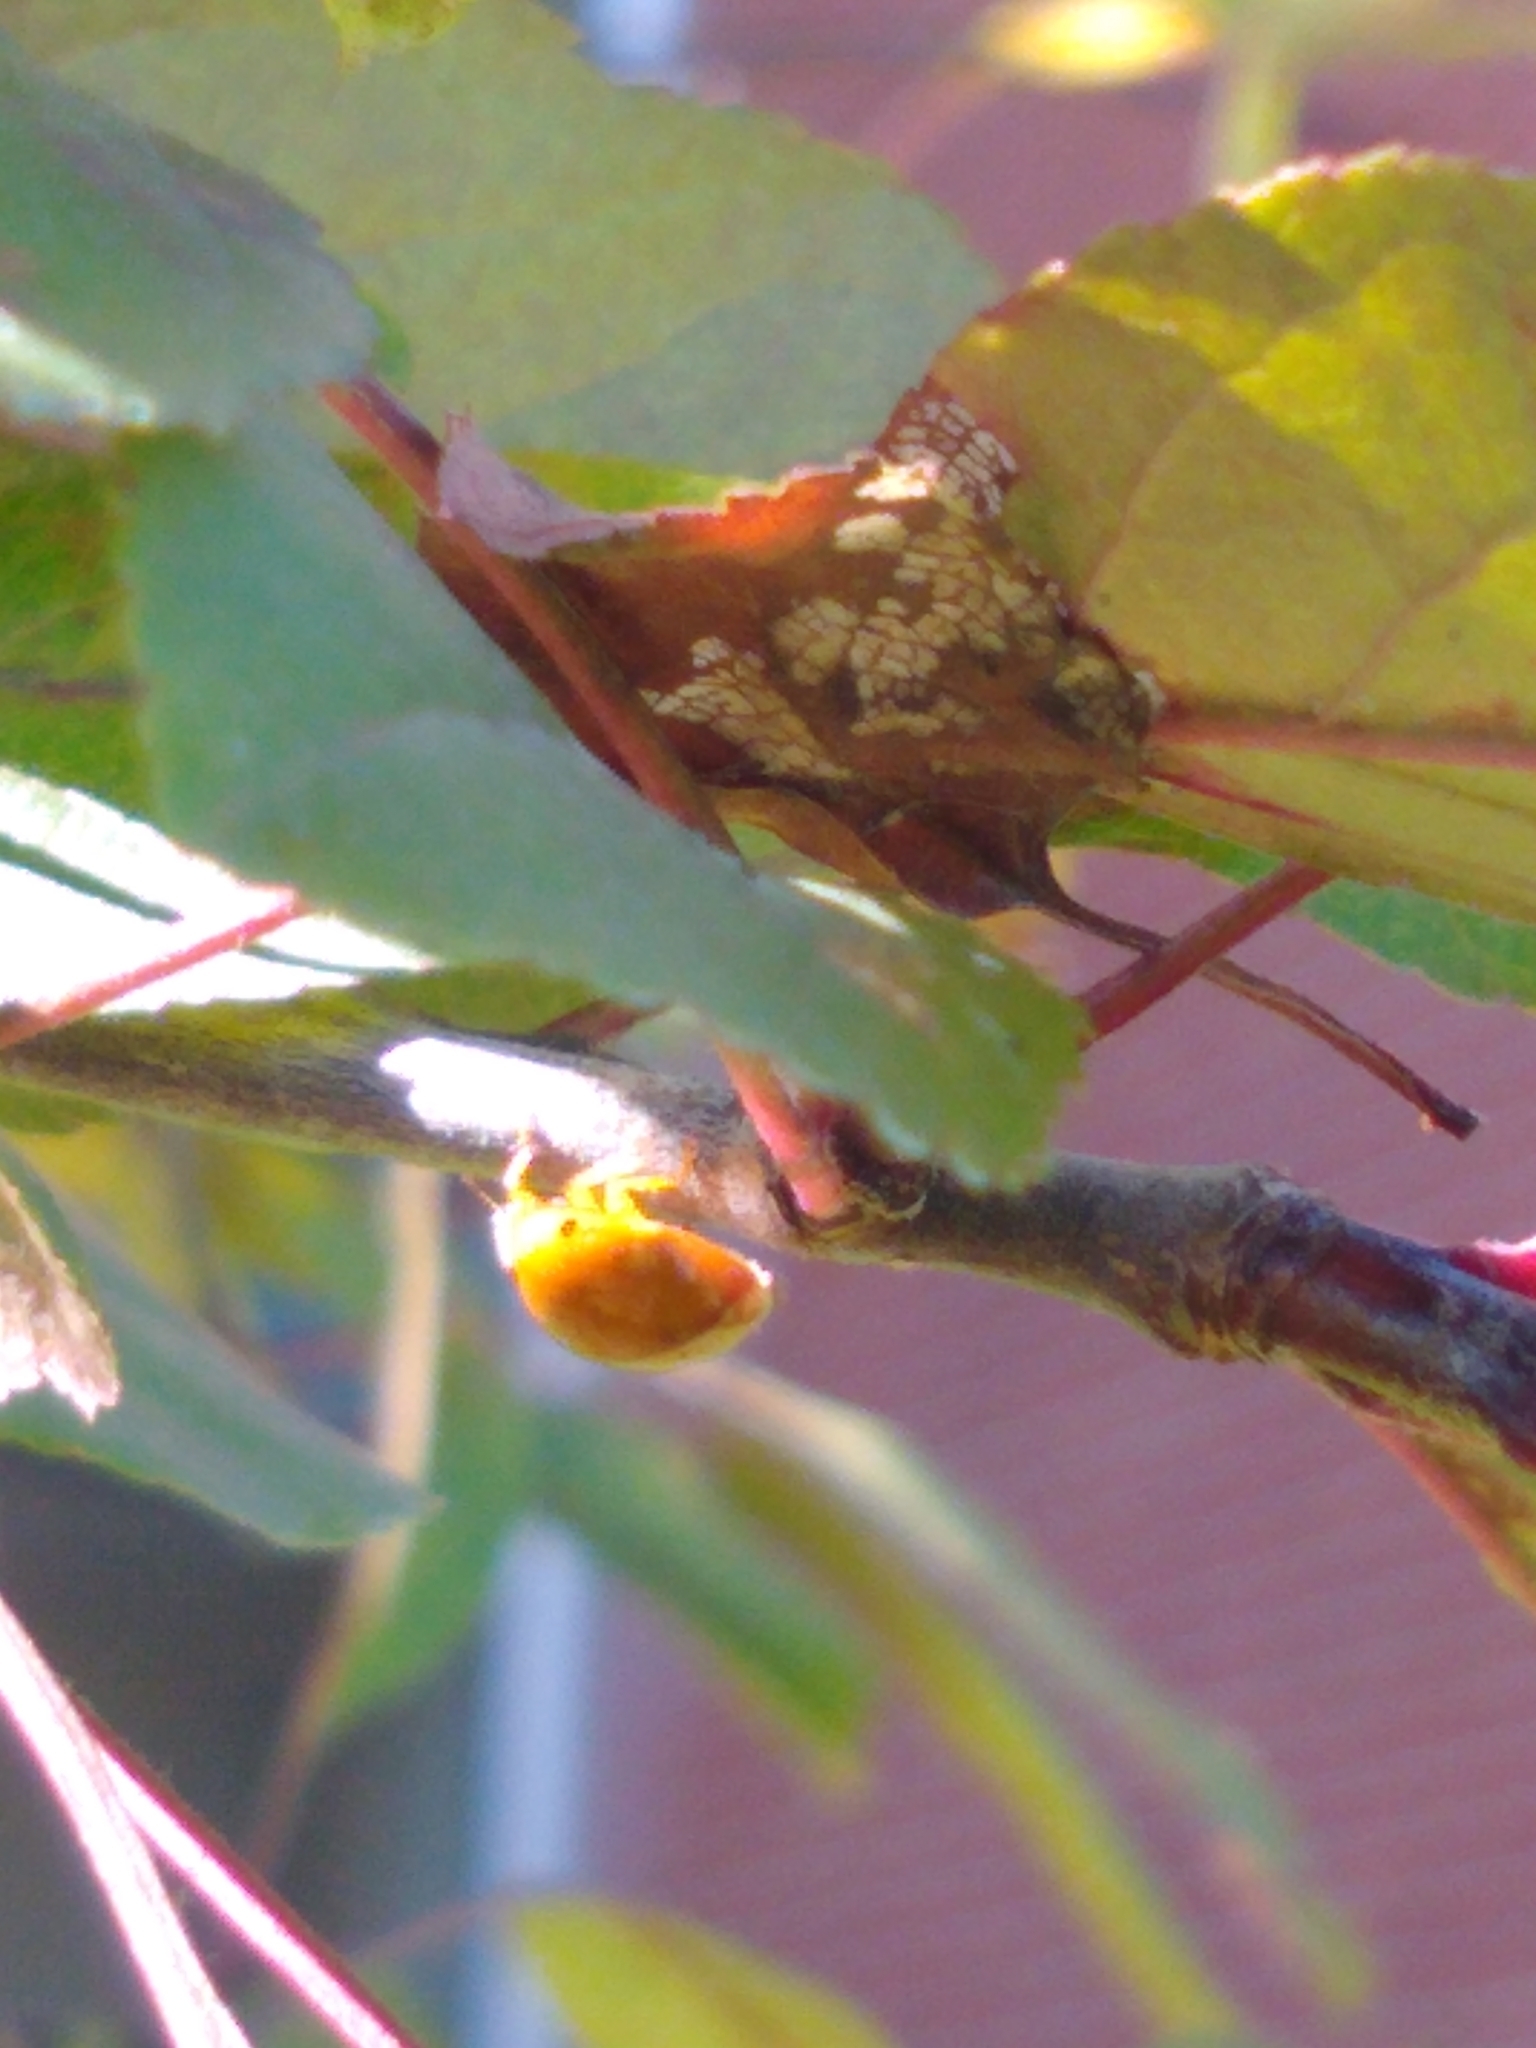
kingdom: Animalia
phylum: Arthropoda
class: Insecta
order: Coleoptera
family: Coccinellidae
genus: Harmonia
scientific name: Harmonia axyridis
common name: Harlequin ladybird
